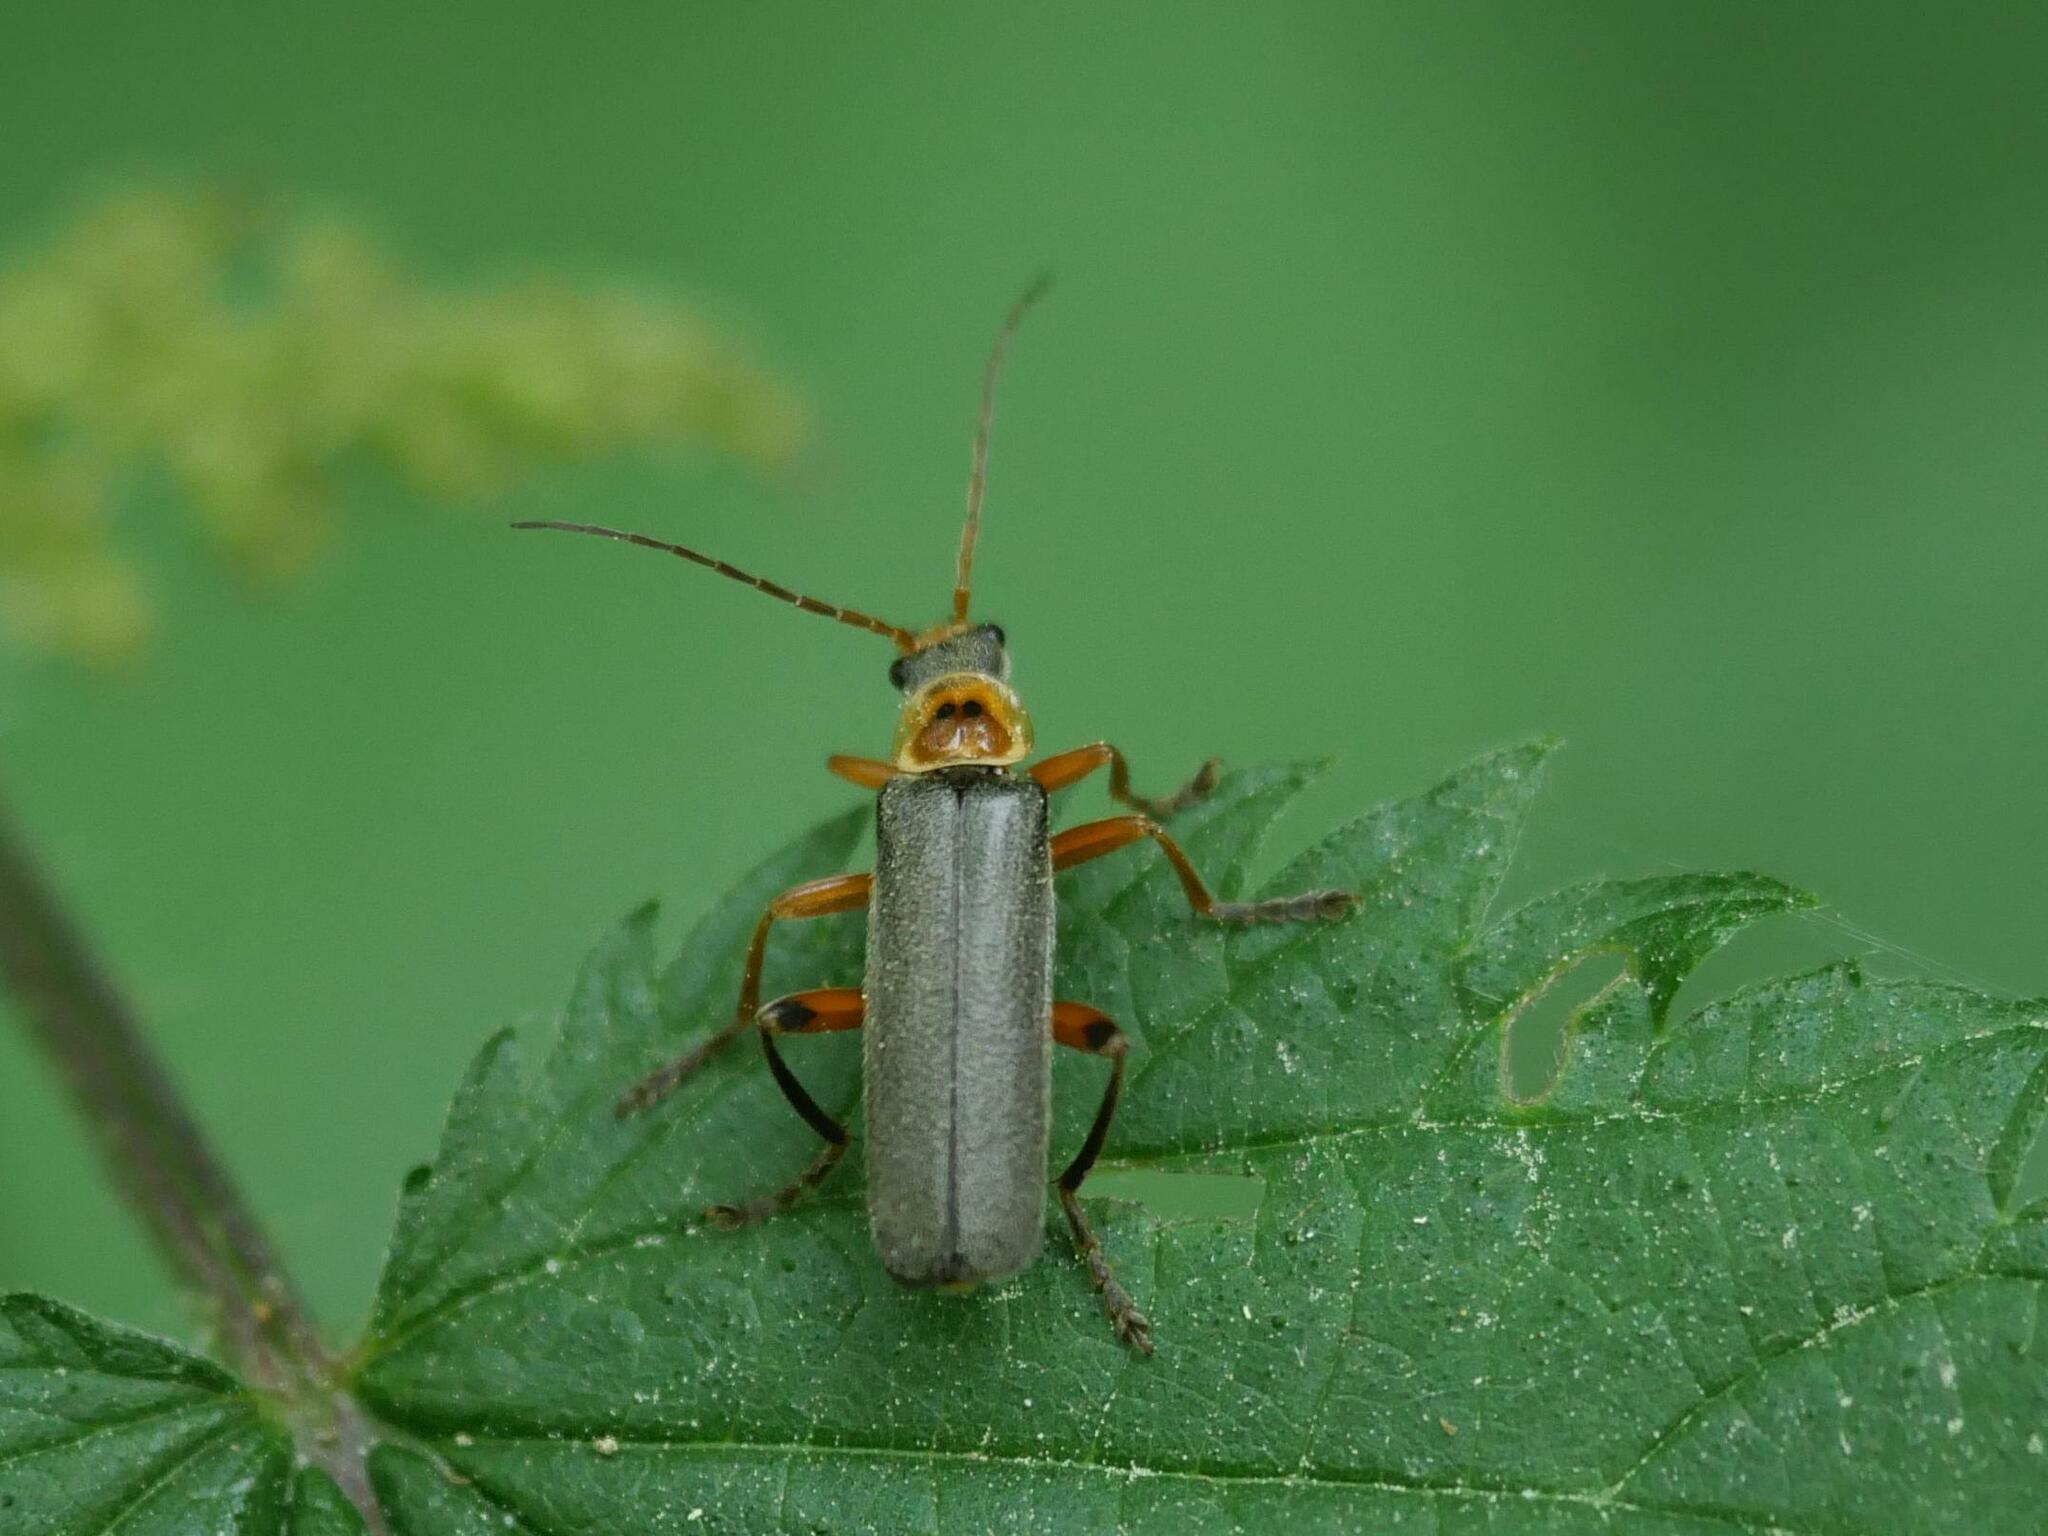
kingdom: Animalia
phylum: Arthropoda
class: Insecta
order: Coleoptera
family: Cantharidae
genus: Cantharis
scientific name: Cantharis nigricans
